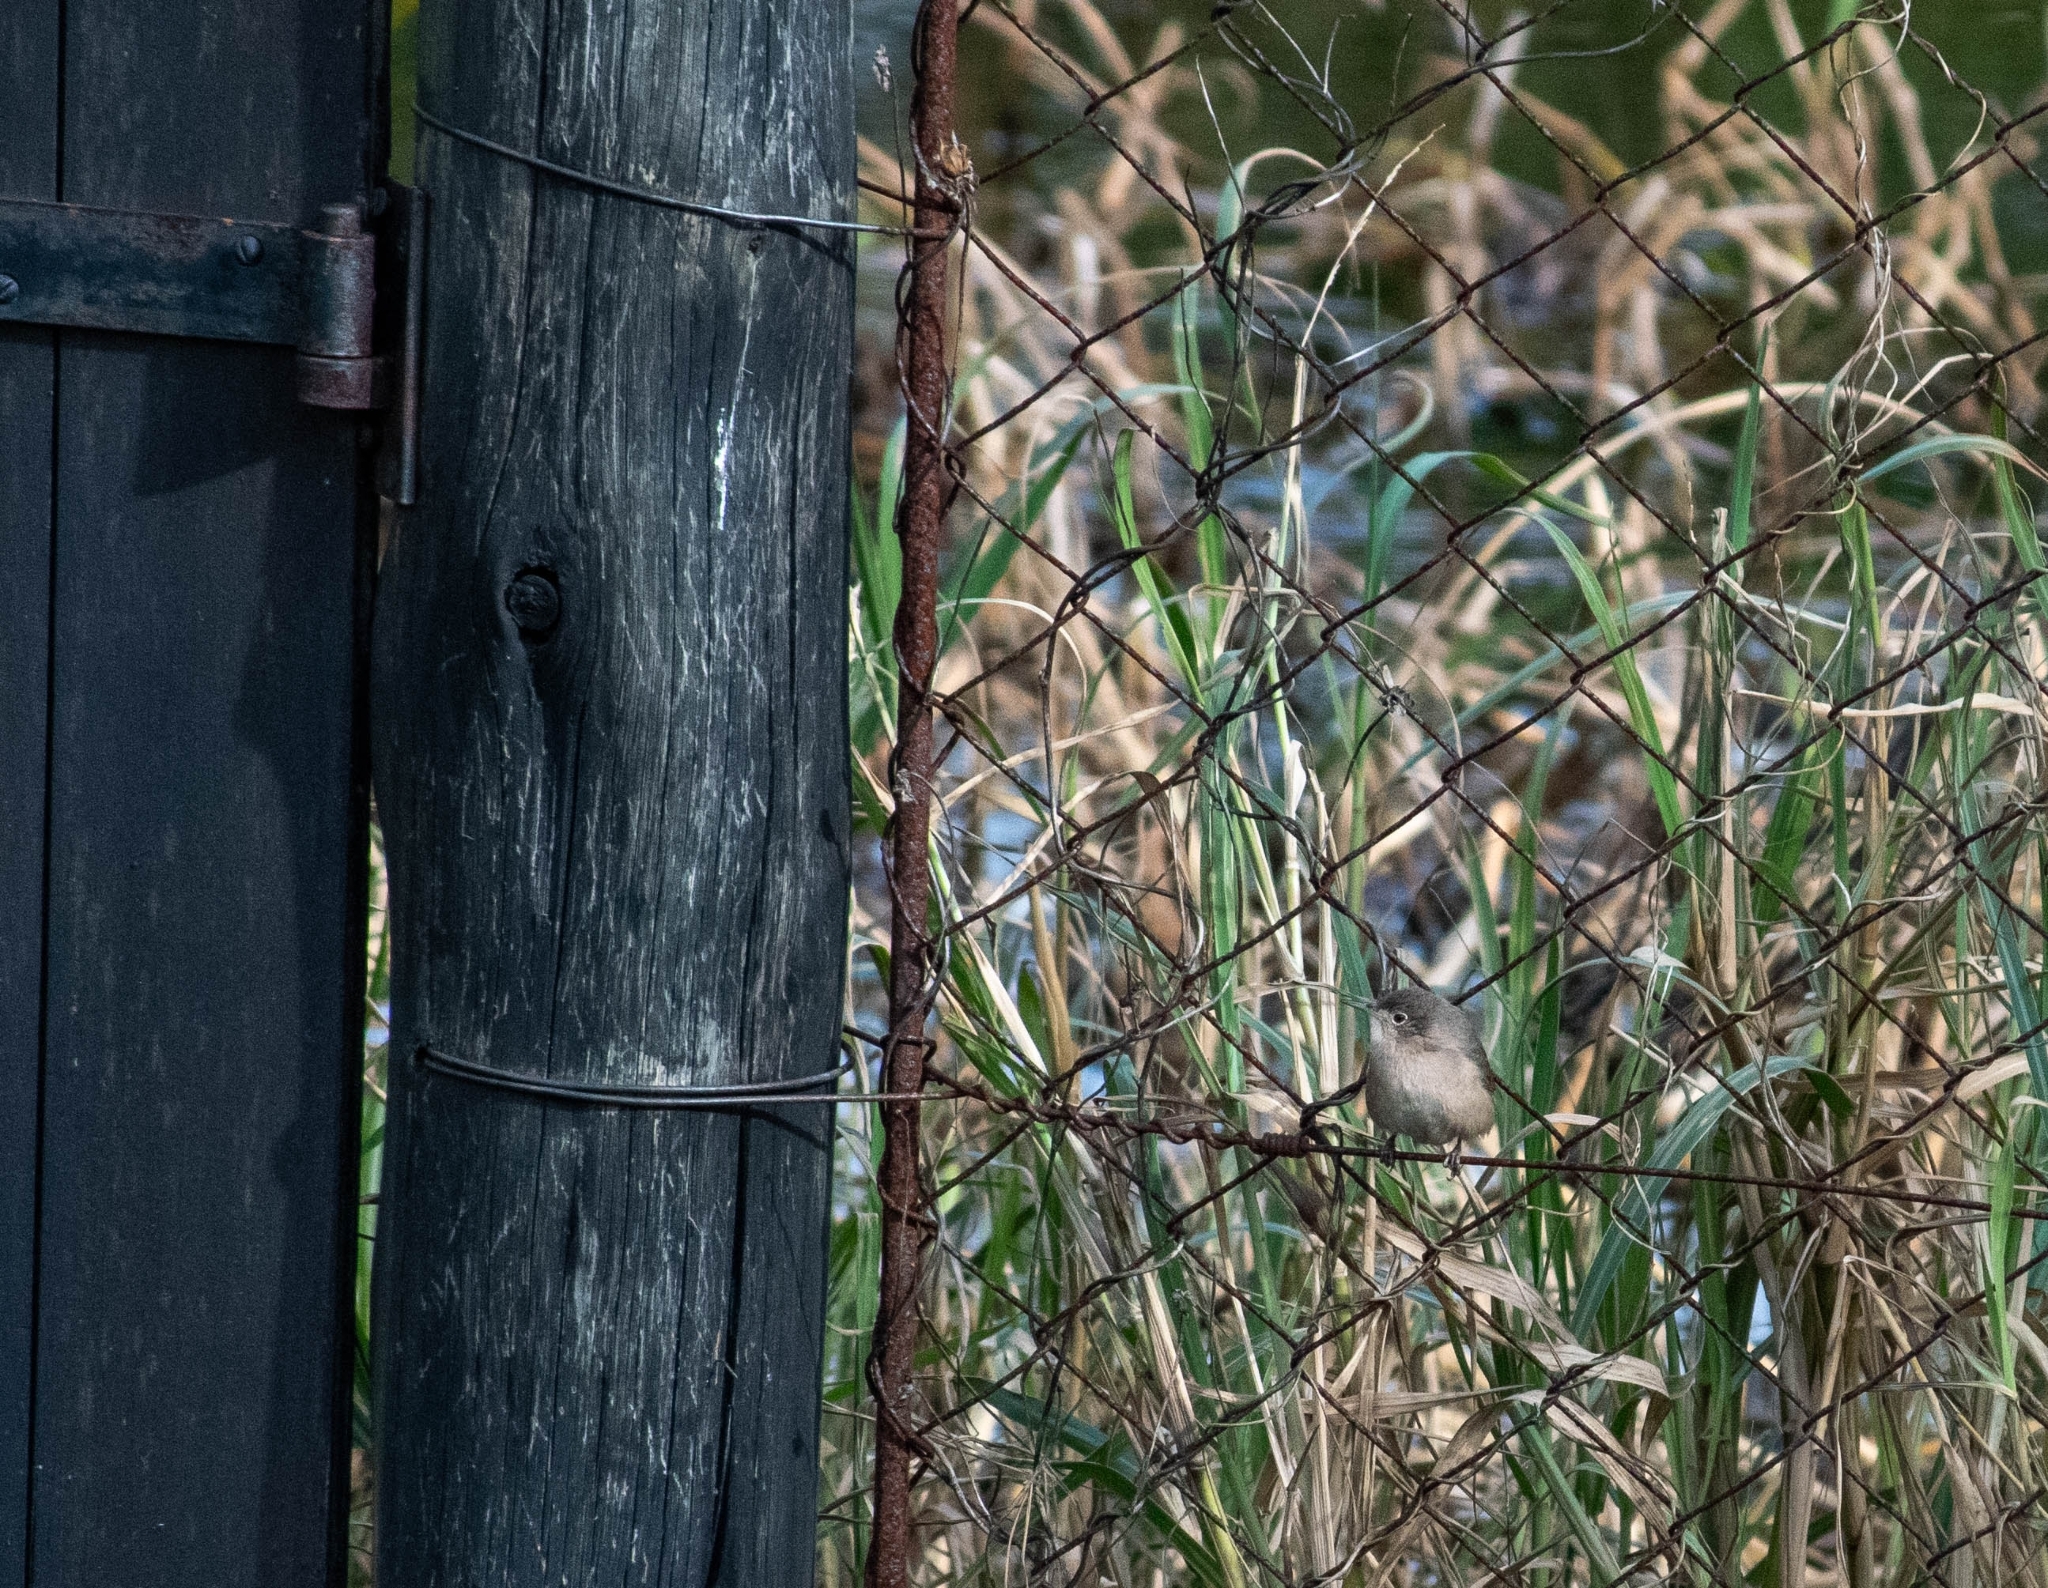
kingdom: Animalia
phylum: Chordata
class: Aves
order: Passeriformes
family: Troglodytidae
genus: Troglodytes
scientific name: Troglodytes aedon
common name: House wren
